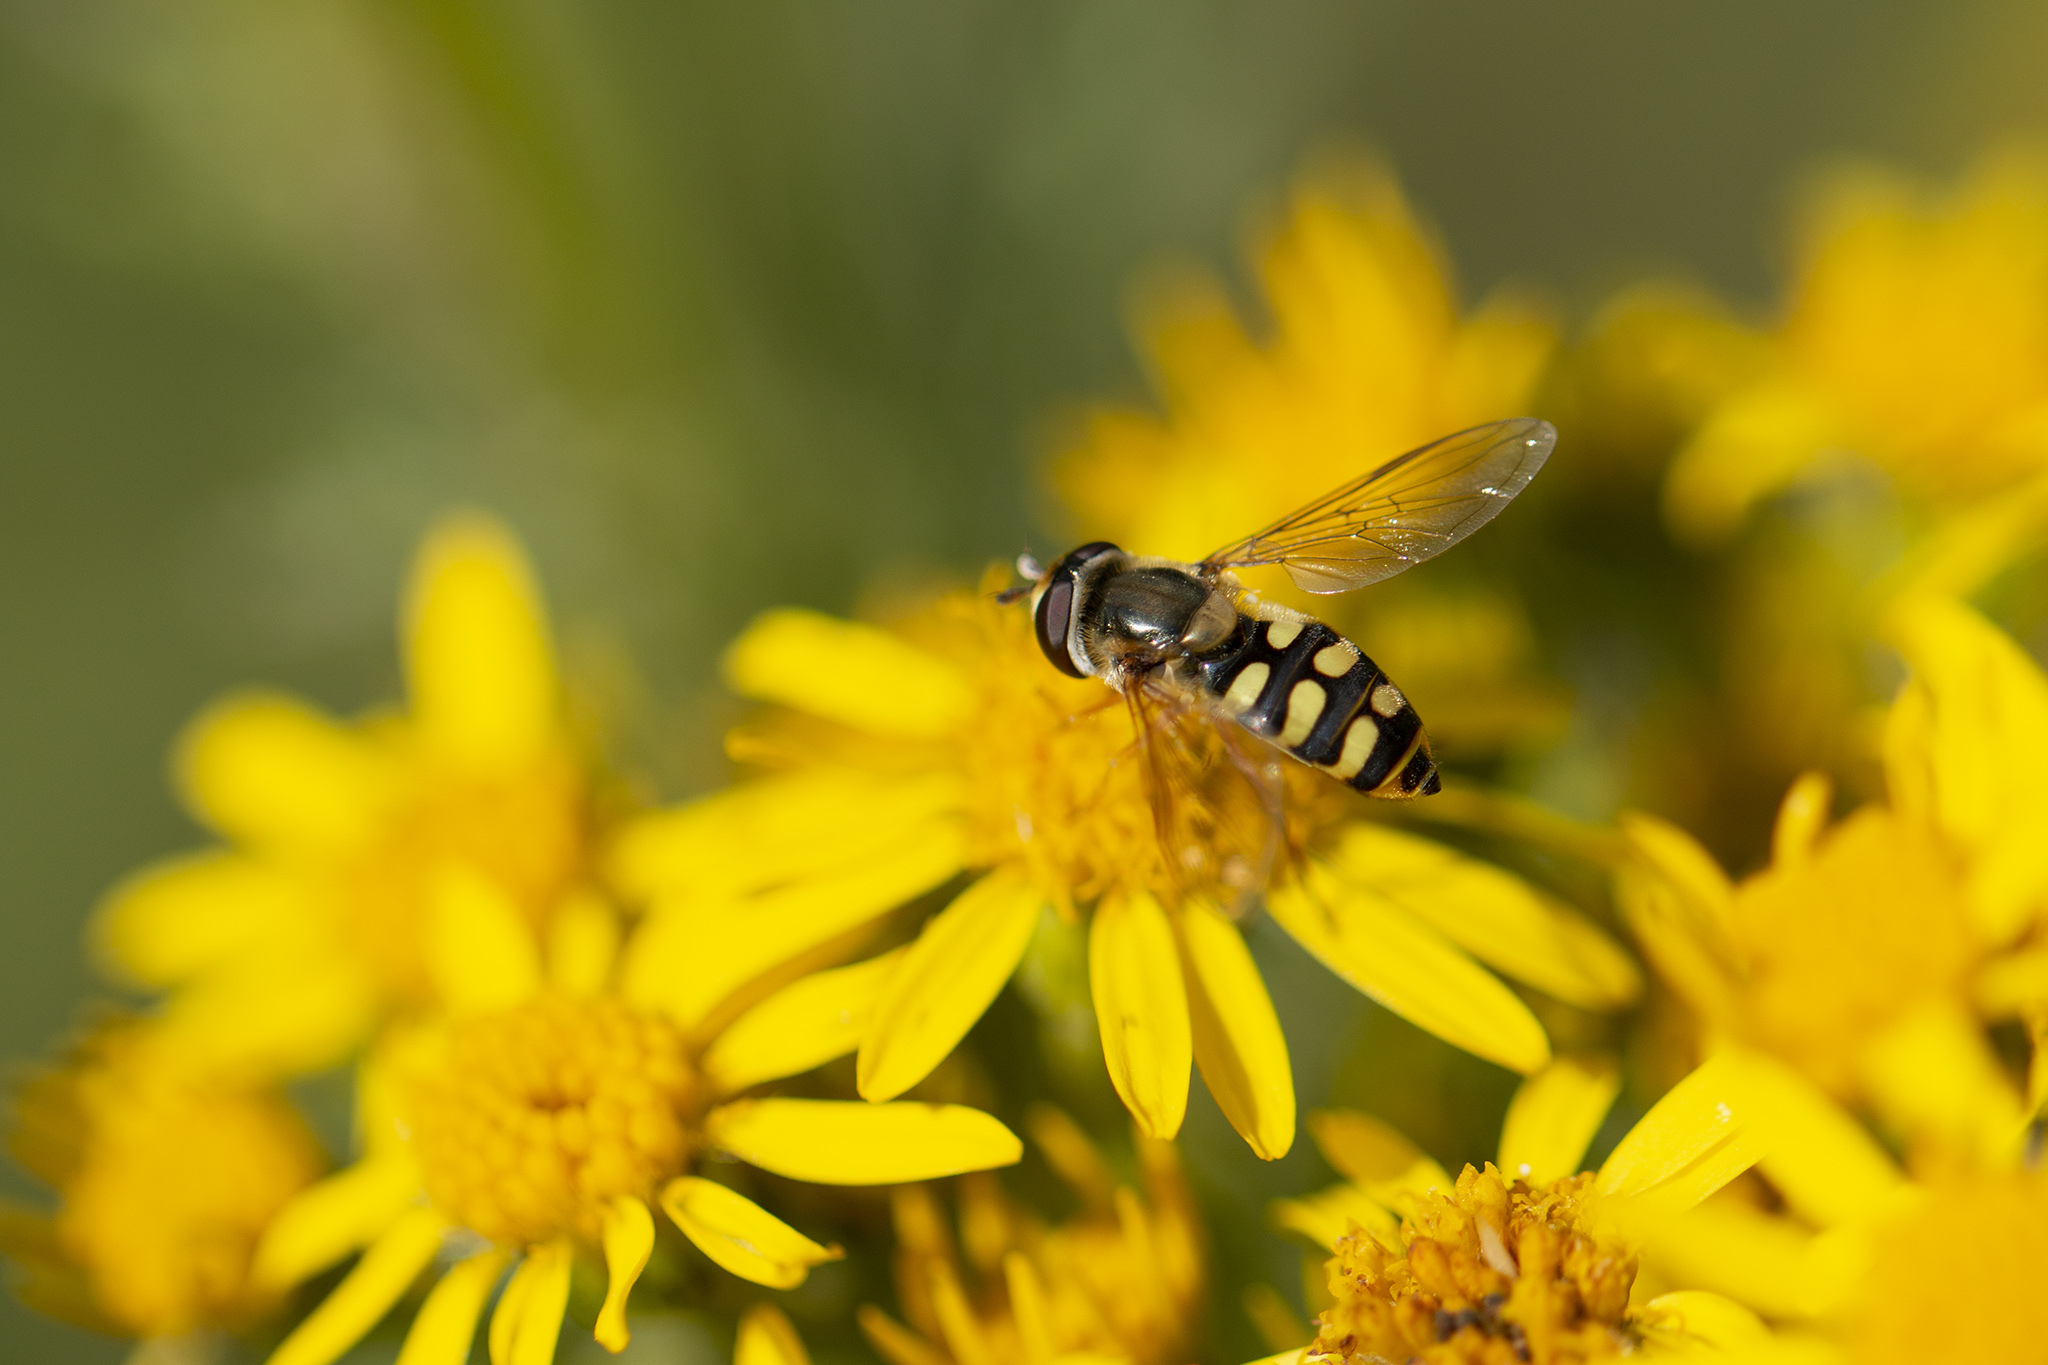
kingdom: Animalia
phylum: Arthropoda
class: Insecta
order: Diptera
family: Syrphidae
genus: Eupeodes
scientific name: Eupeodes corollae
